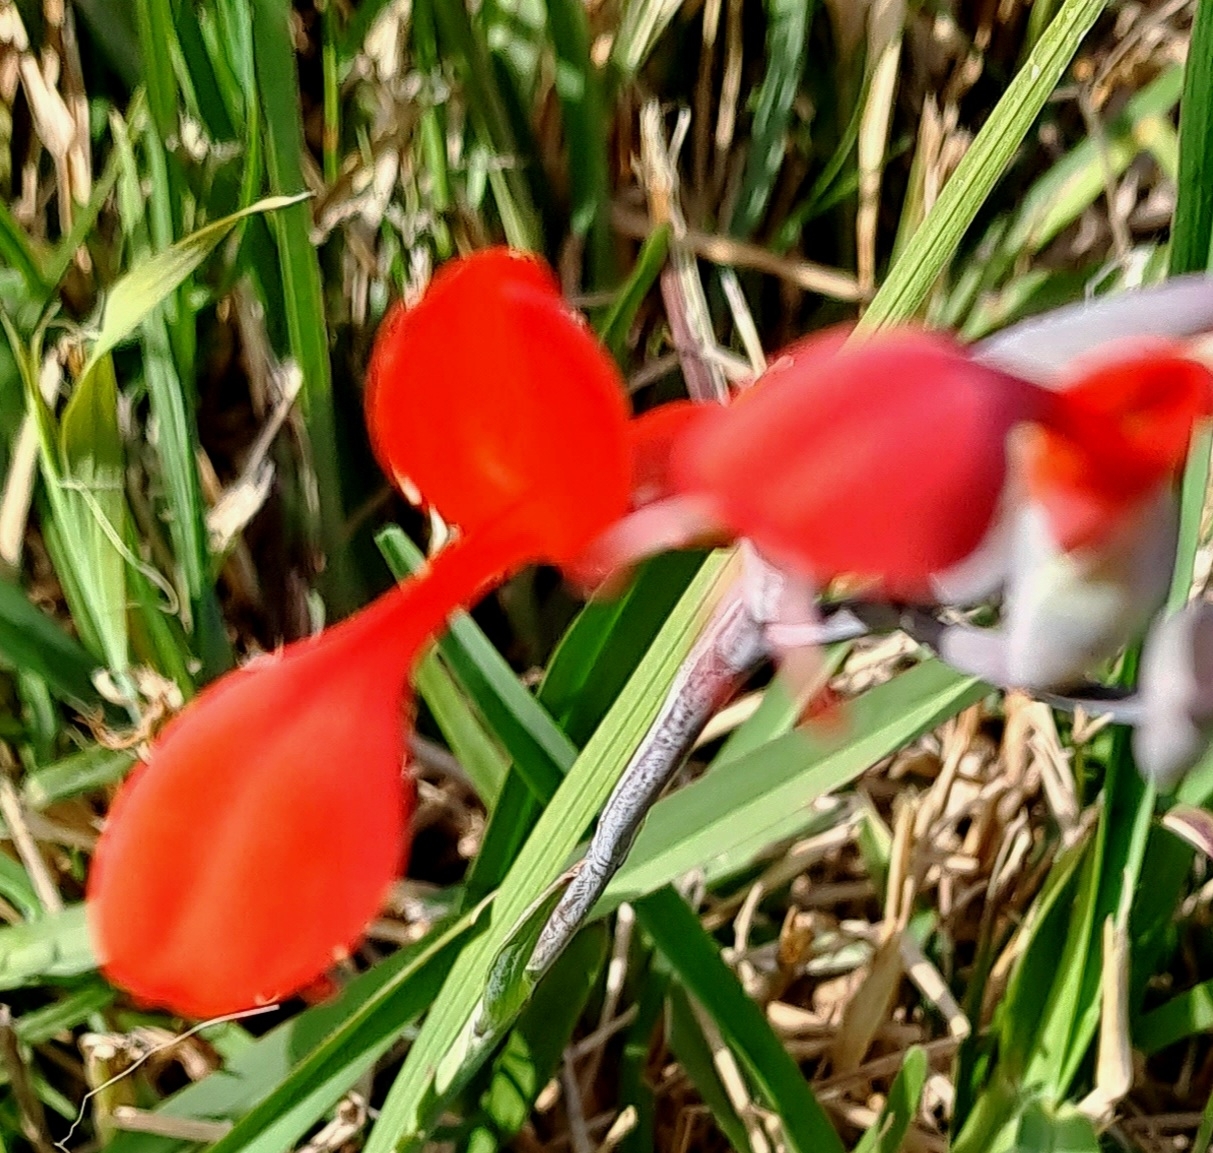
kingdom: Plantae
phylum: Tracheophyta
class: Liliopsida
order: Asparagales
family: Iridaceae
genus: Gladiolus
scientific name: Gladiolus cunonius
